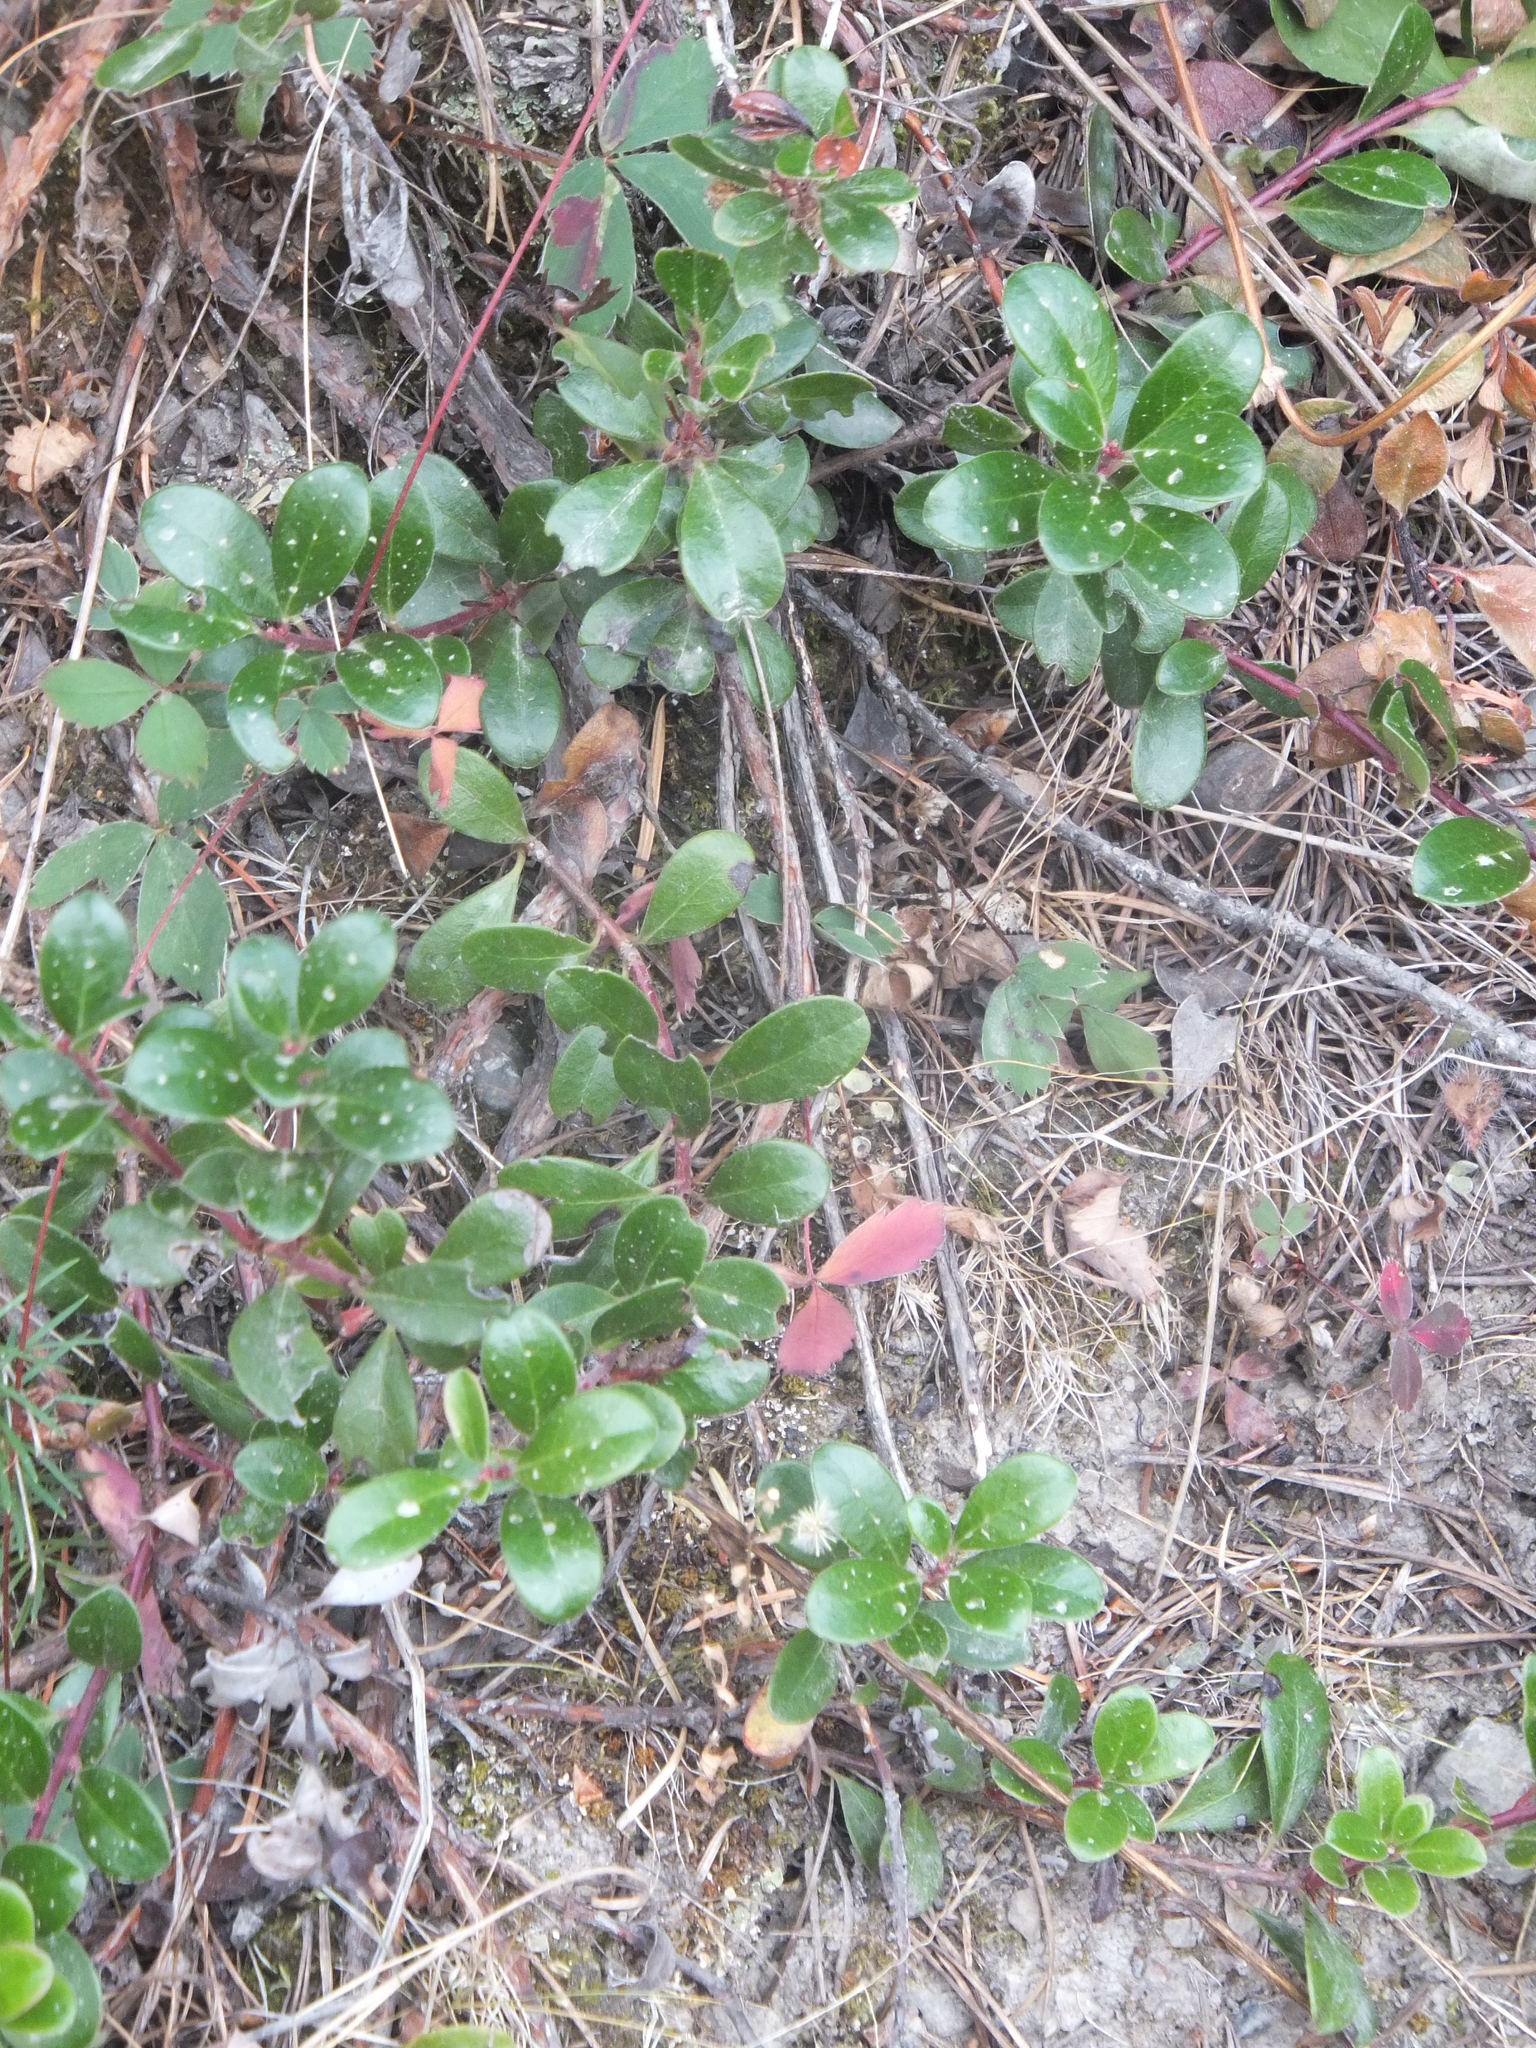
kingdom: Plantae
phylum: Tracheophyta
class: Magnoliopsida
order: Ericales
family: Ericaceae
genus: Arctostaphylos
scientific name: Arctostaphylos uva-ursi
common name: Bearberry
